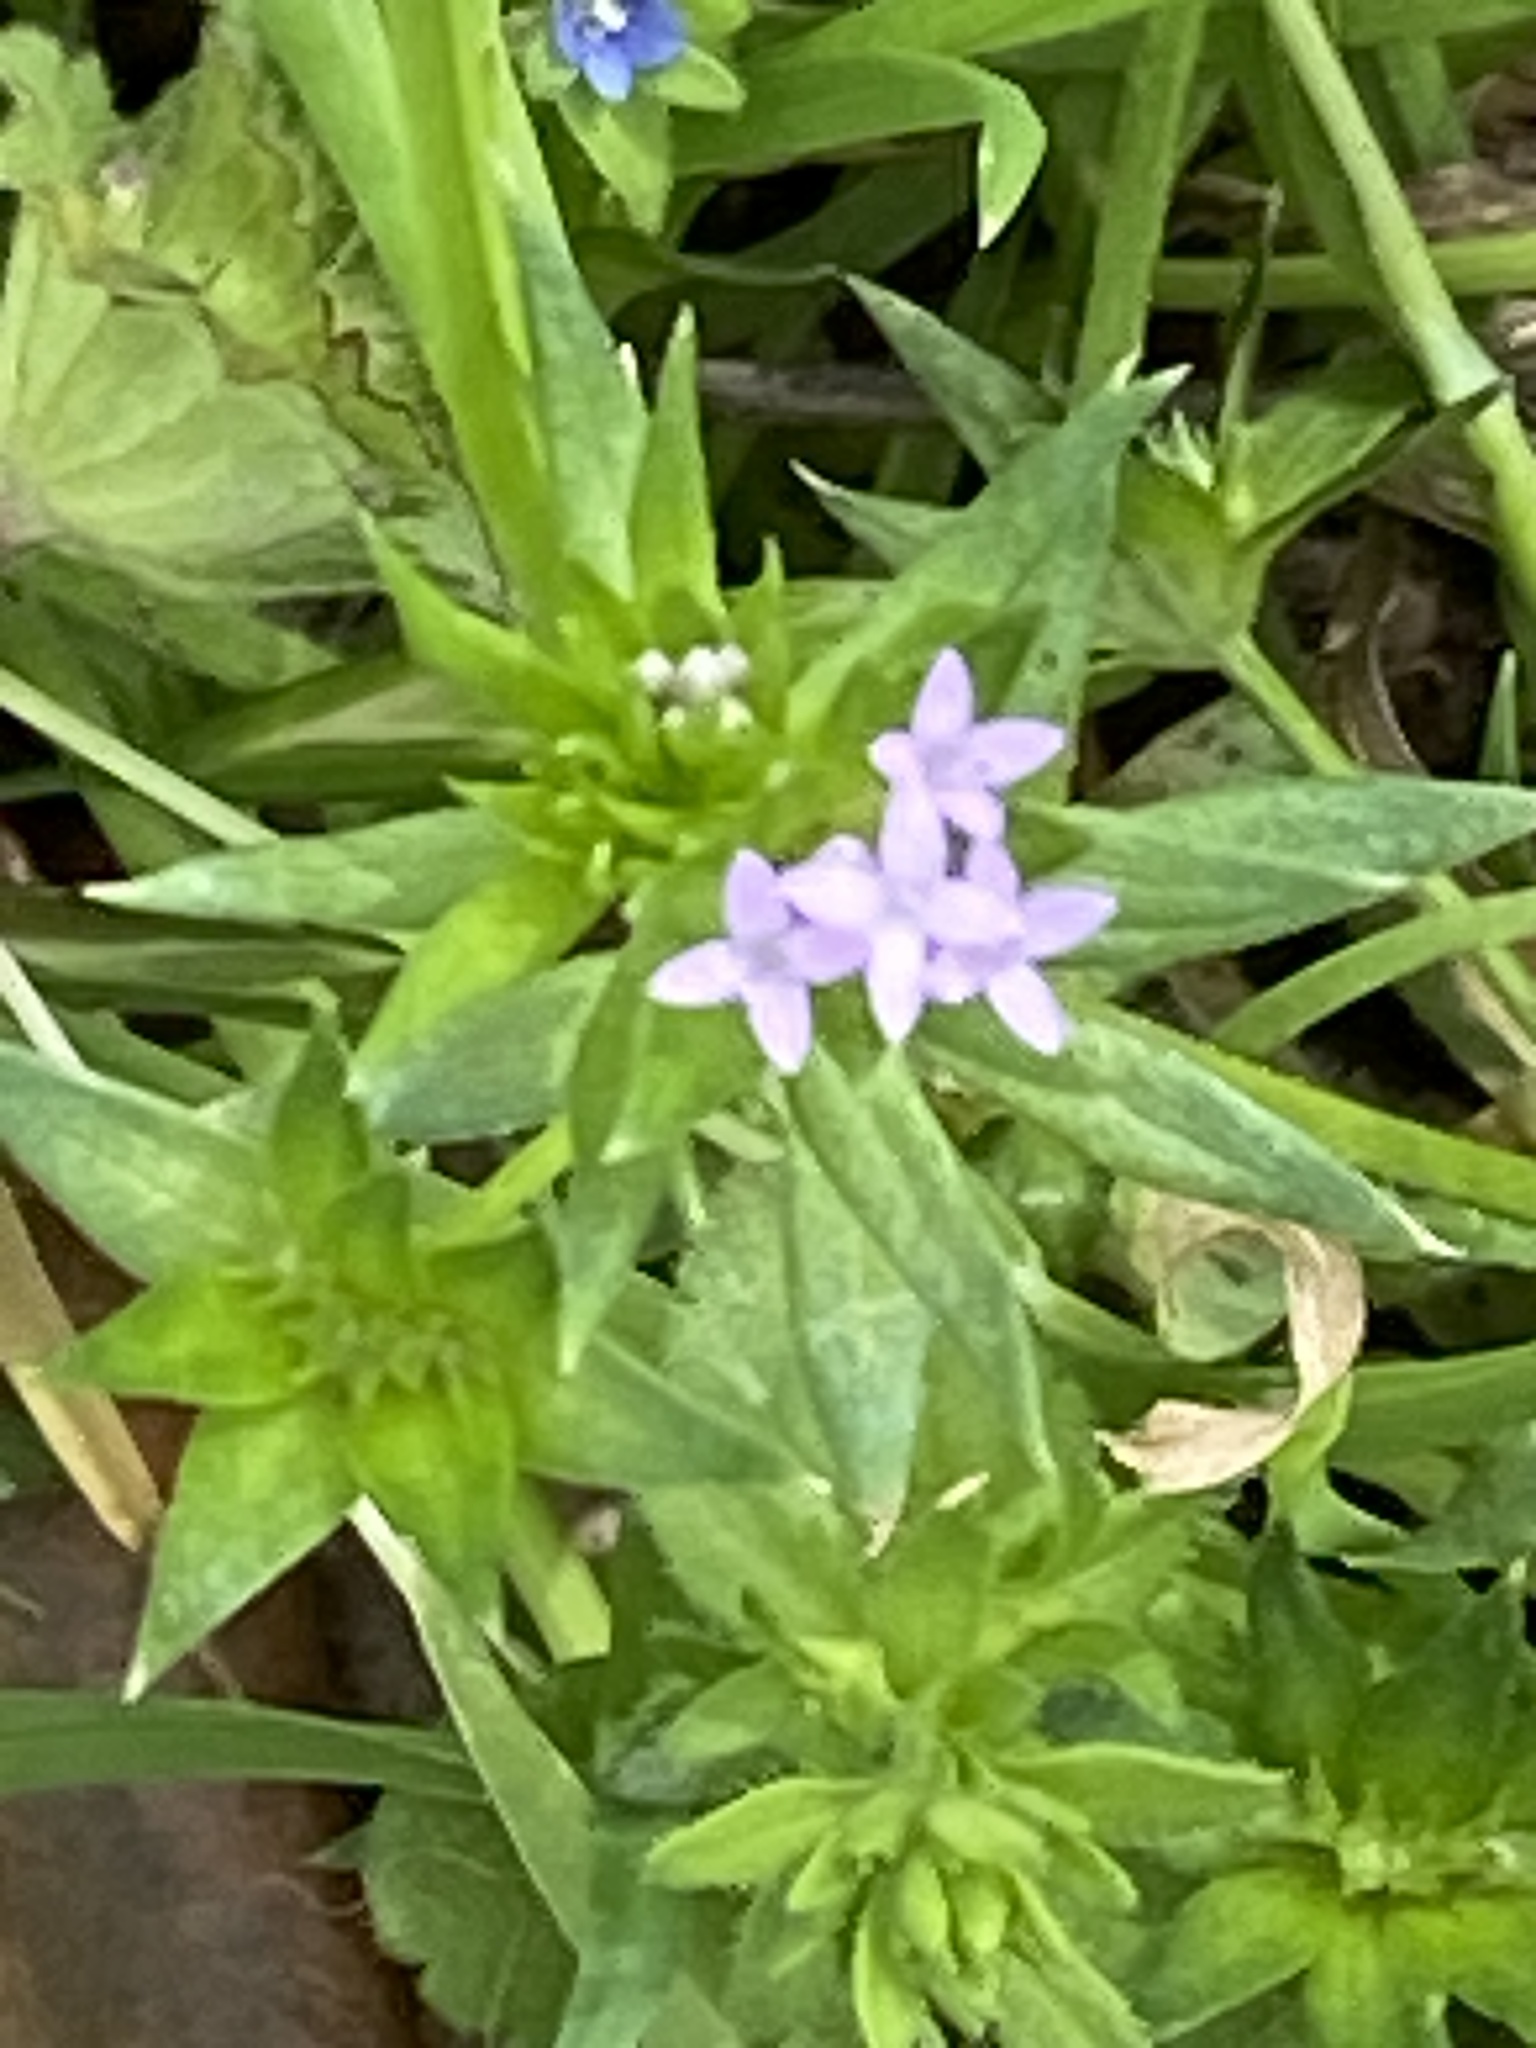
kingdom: Plantae
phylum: Tracheophyta
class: Magnoliopsida
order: Gentianales
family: Rubiaceae
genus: Sherardia
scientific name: Sherardia arvensis
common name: Field madder
